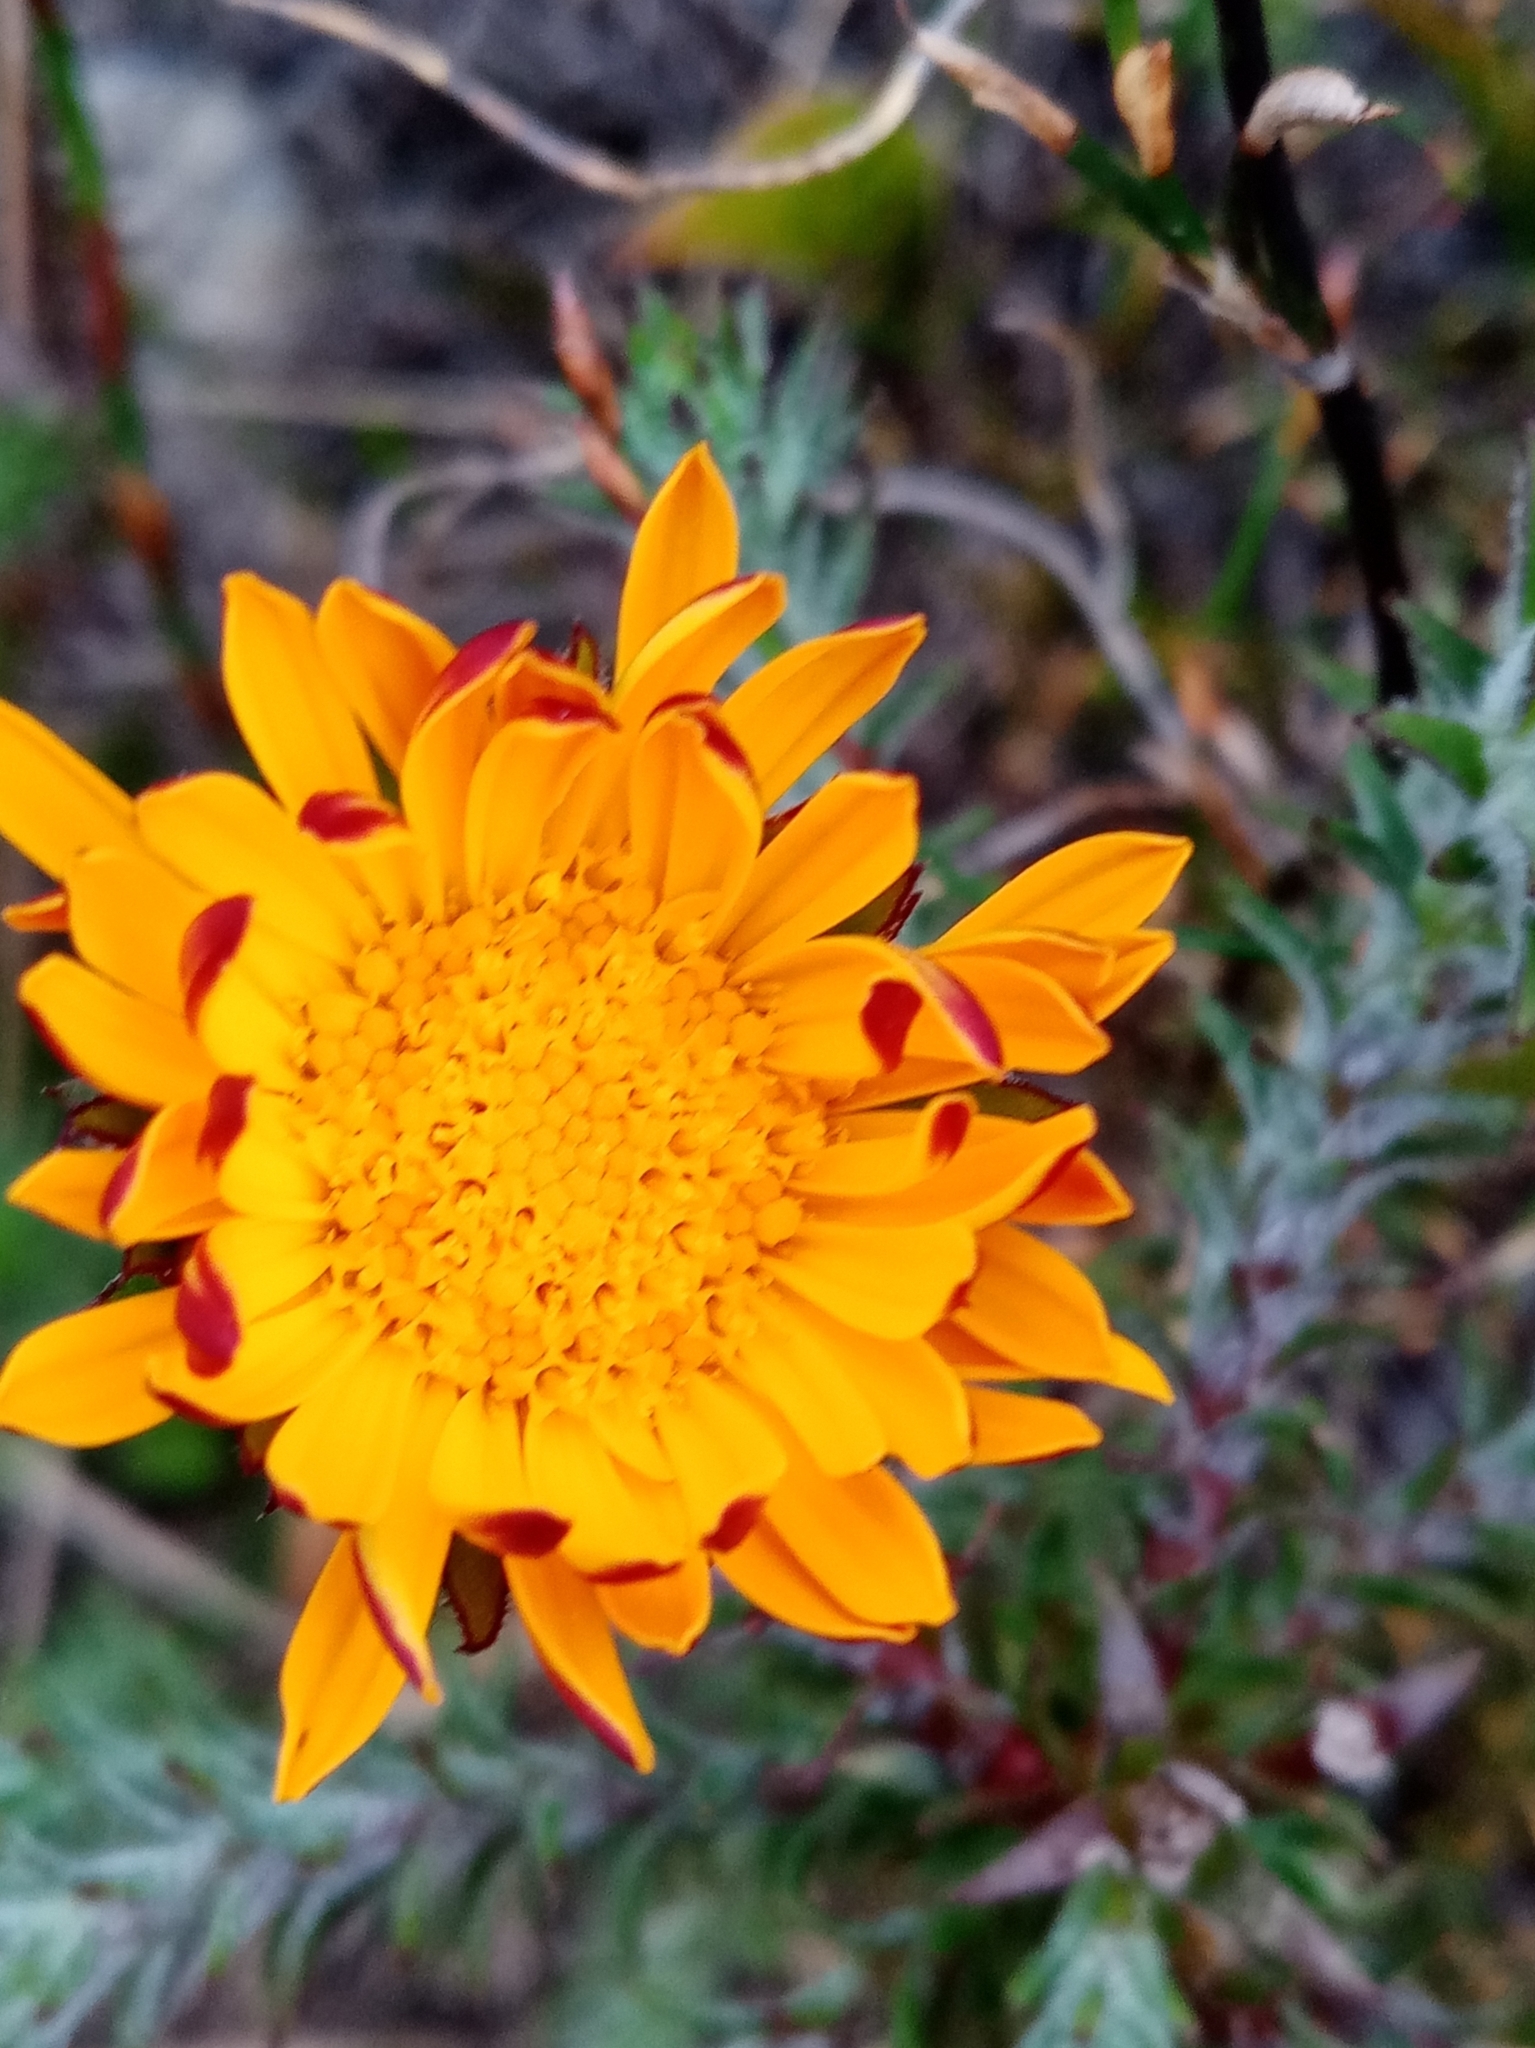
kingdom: Plantae
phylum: Tracheophyta
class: Magnoliopsida
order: Asterales
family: Asteraceae
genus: Oedera
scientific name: Oedera capensis
